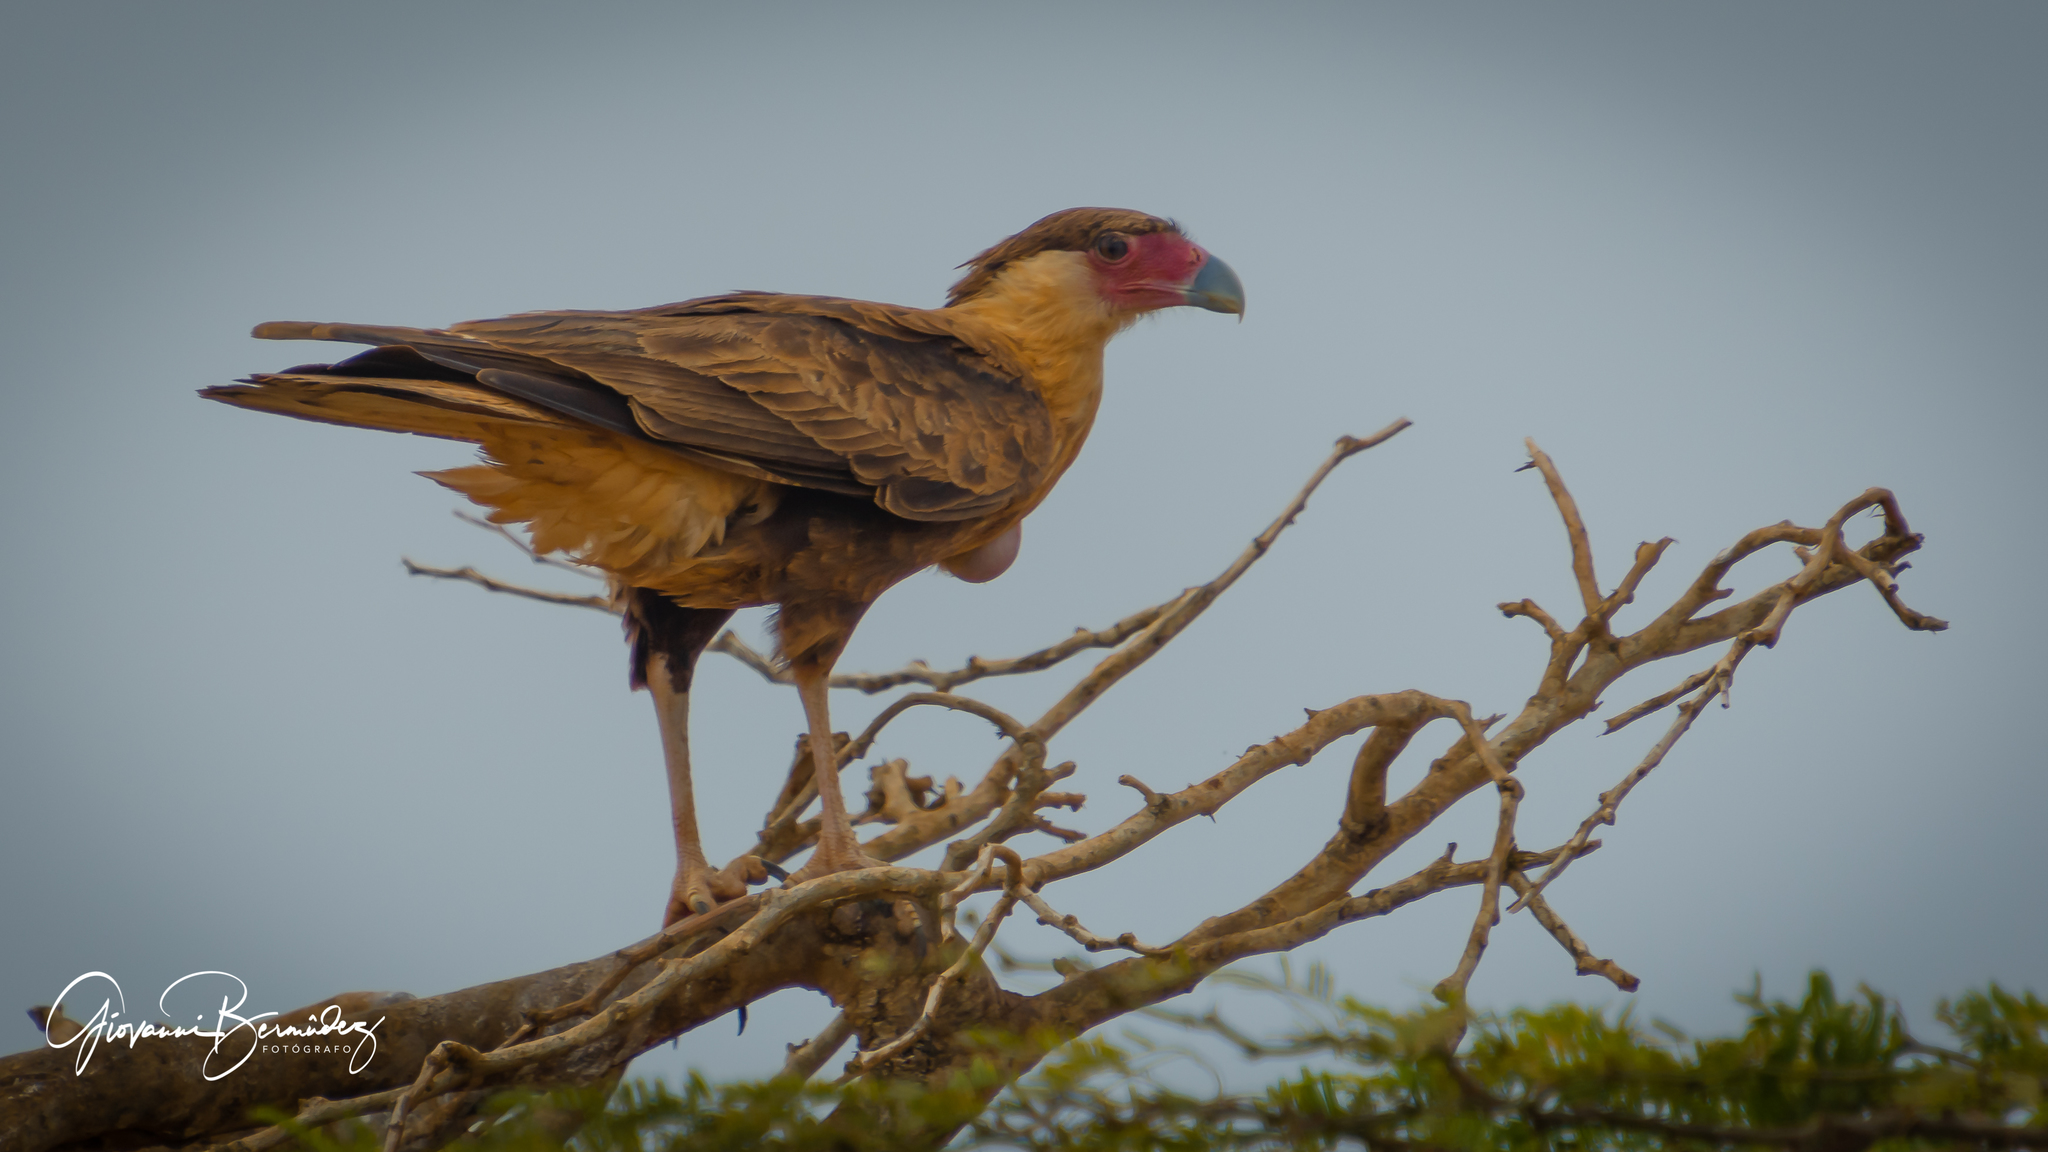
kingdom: Animalia
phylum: Chordata
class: Aves
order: Falconiformes
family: Falconidae
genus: Caracara
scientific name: Caracara plancus
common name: Southern caracara
